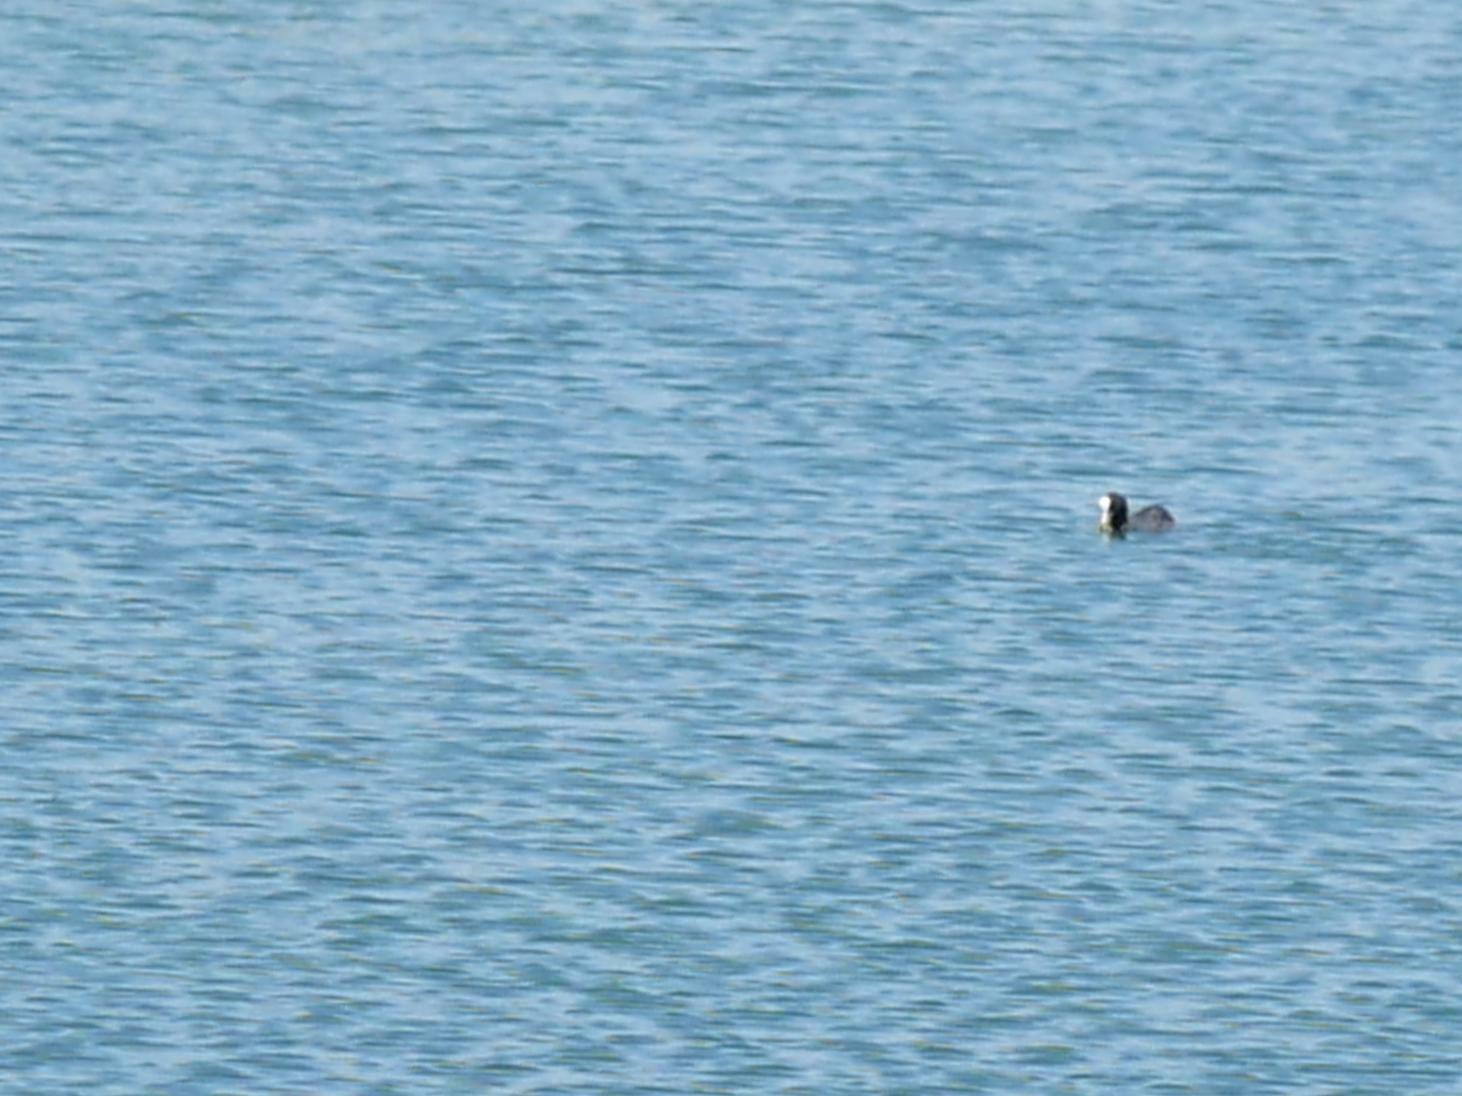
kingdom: Animalia
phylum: Chordata
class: Aves
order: Gruiformes
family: Rallidae
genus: Fulica
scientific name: Fulica atra
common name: Eurasian coot
